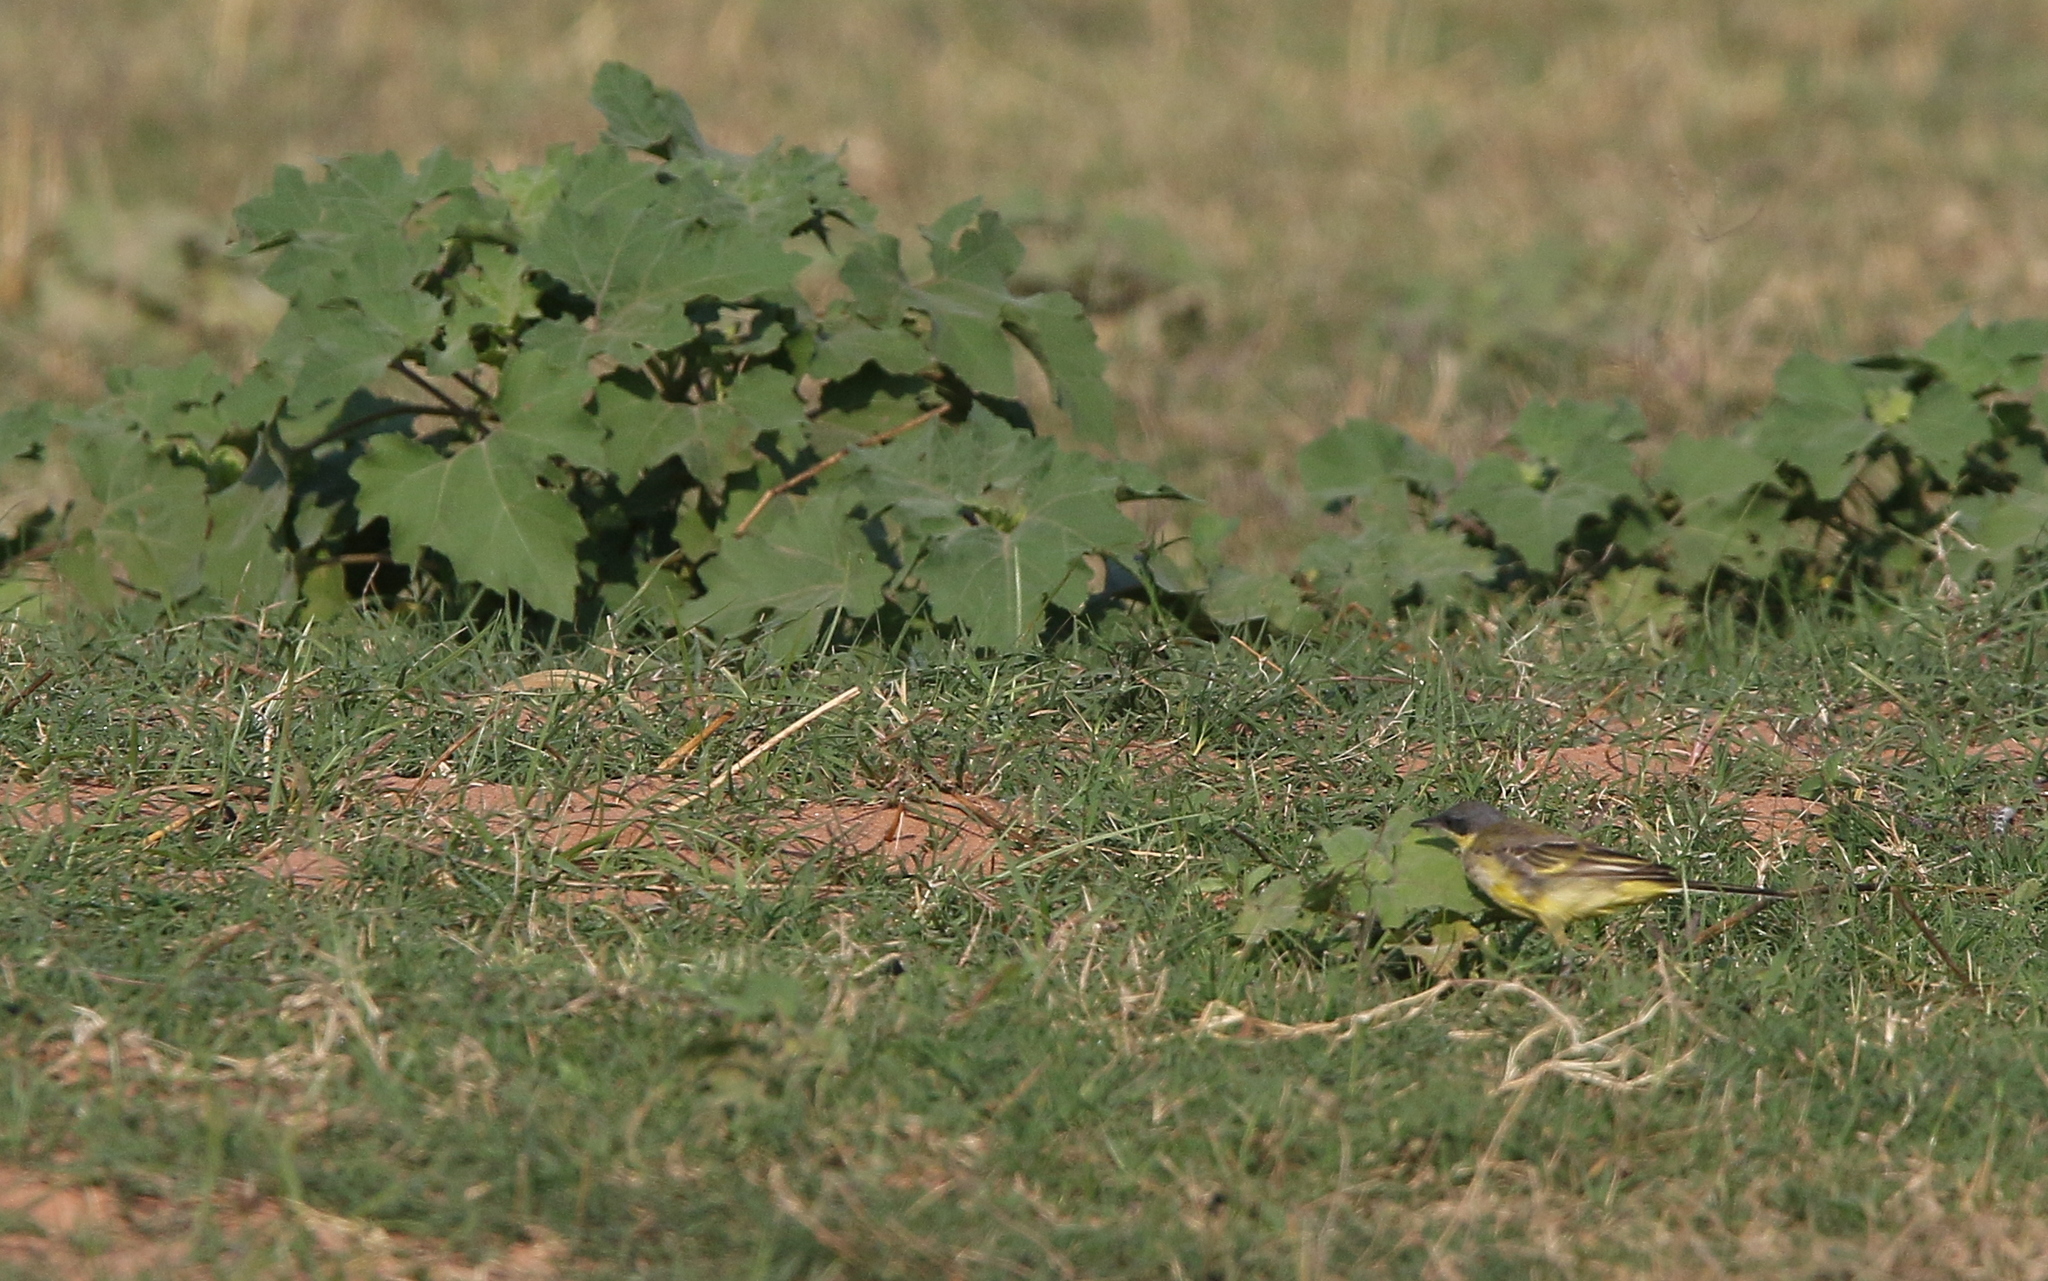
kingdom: Animalia
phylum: Chordata
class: Aves
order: Passeriformes
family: Motacillidae
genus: Motacilla
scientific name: Motacilla tschutschensis
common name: Eastern yellow wagtail
